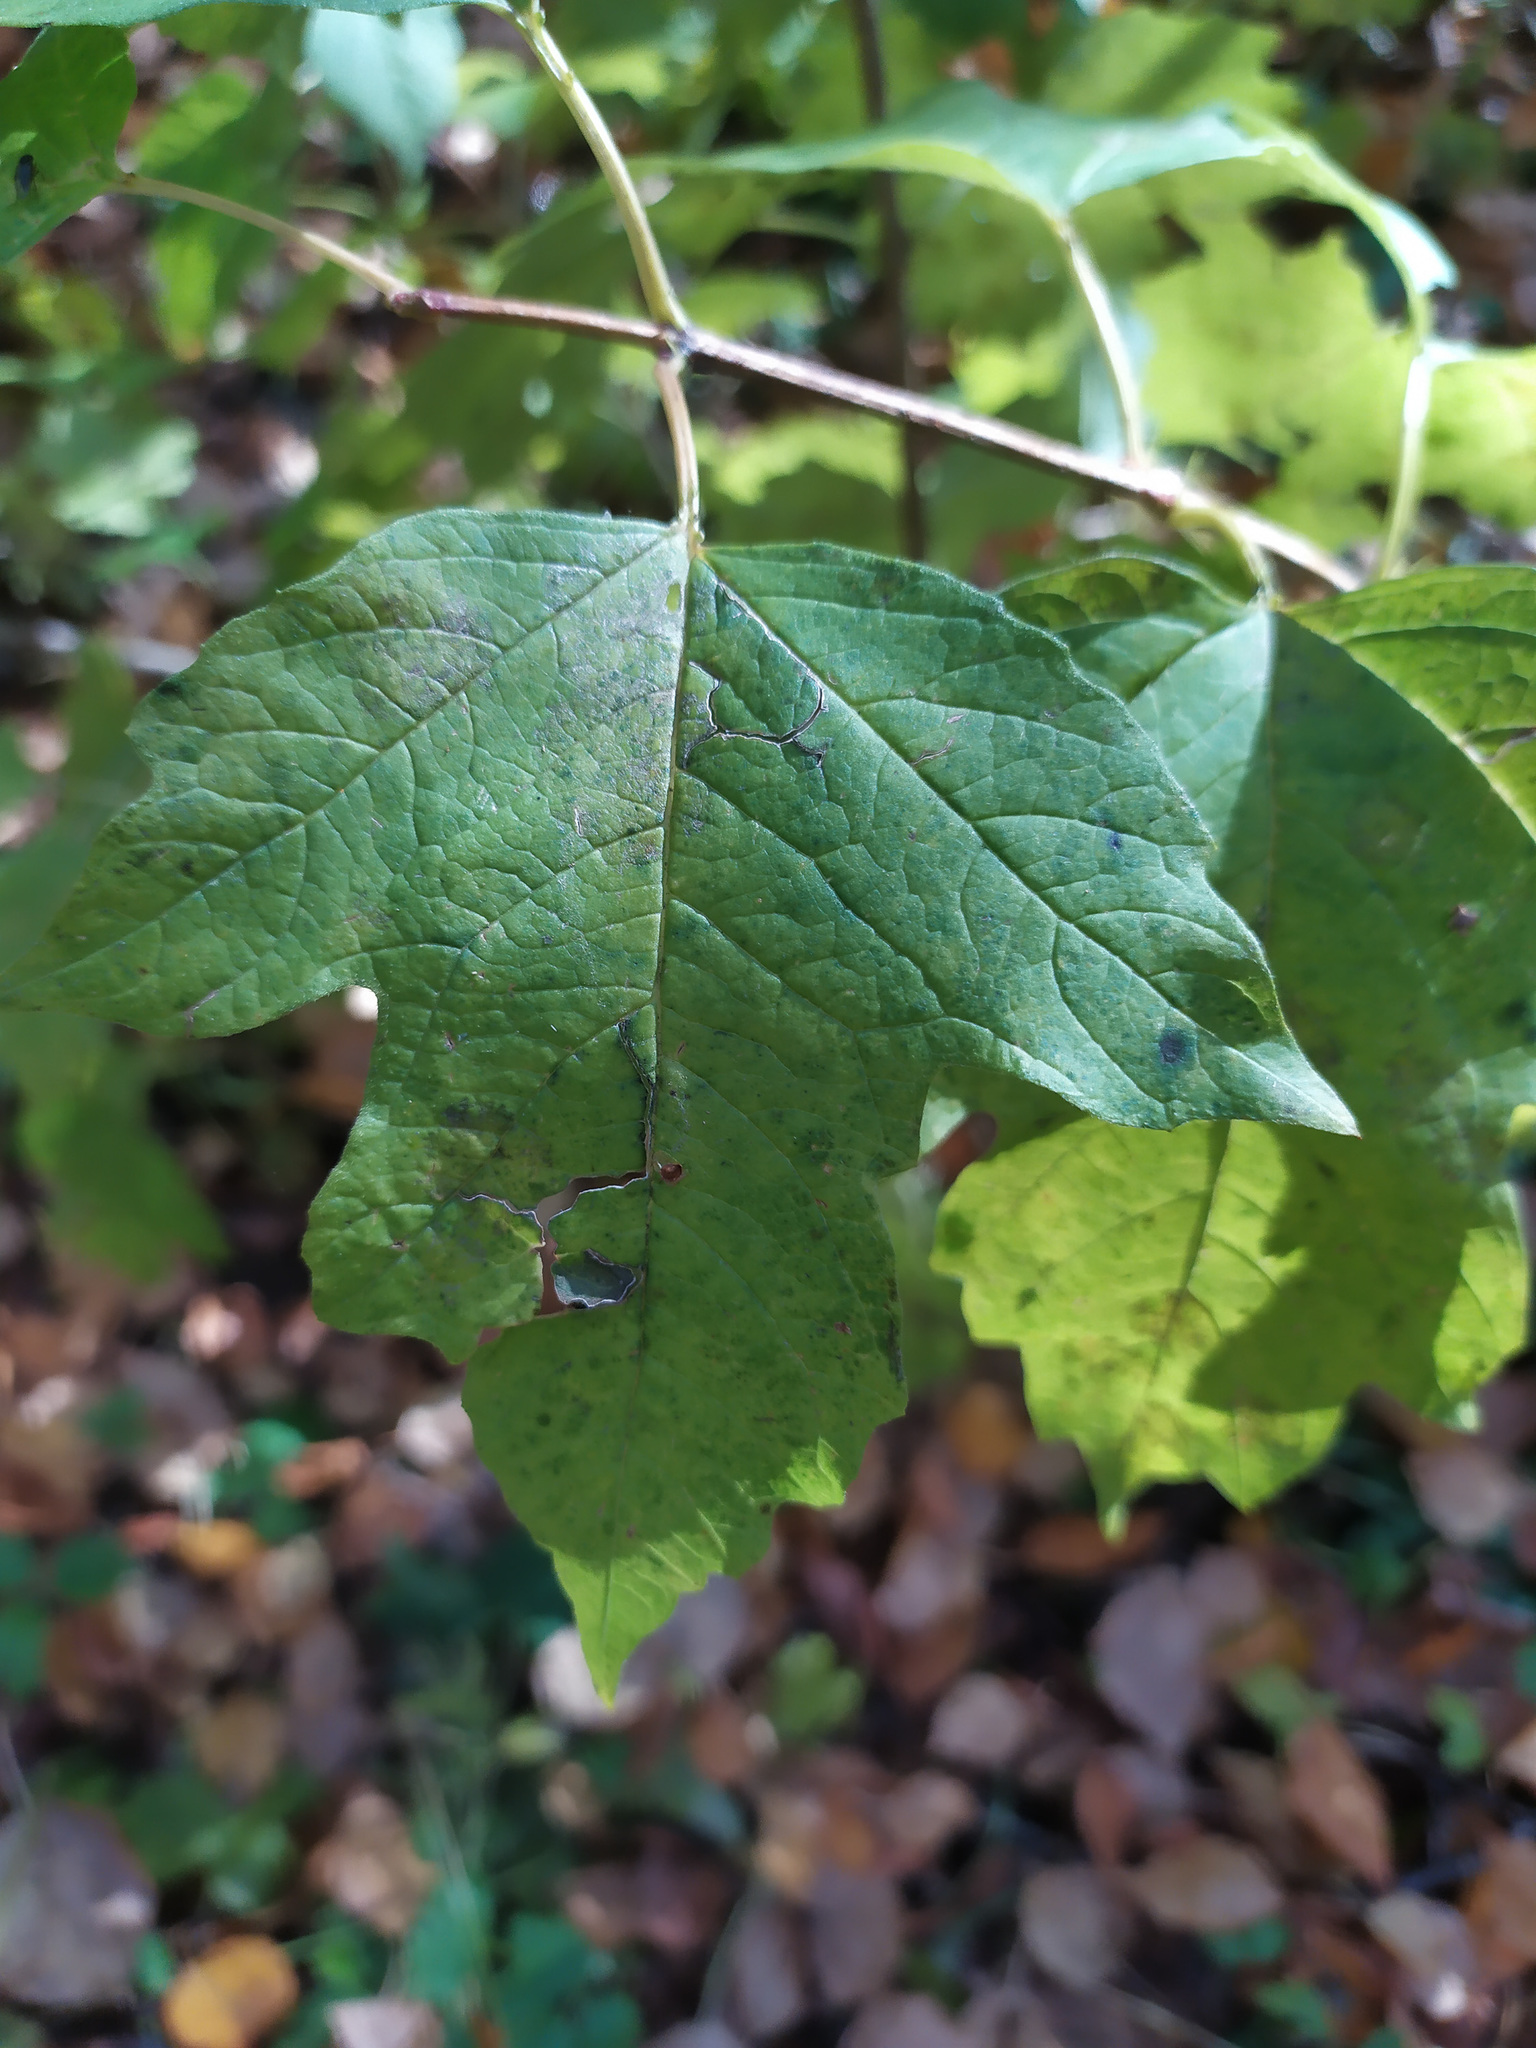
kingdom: Plantae
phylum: Tracheophyta
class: Magnoliopsida
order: Dipsacales
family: Viburnaceae
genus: Viburnum
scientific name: Viburnum opulus
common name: Guelder-rose
